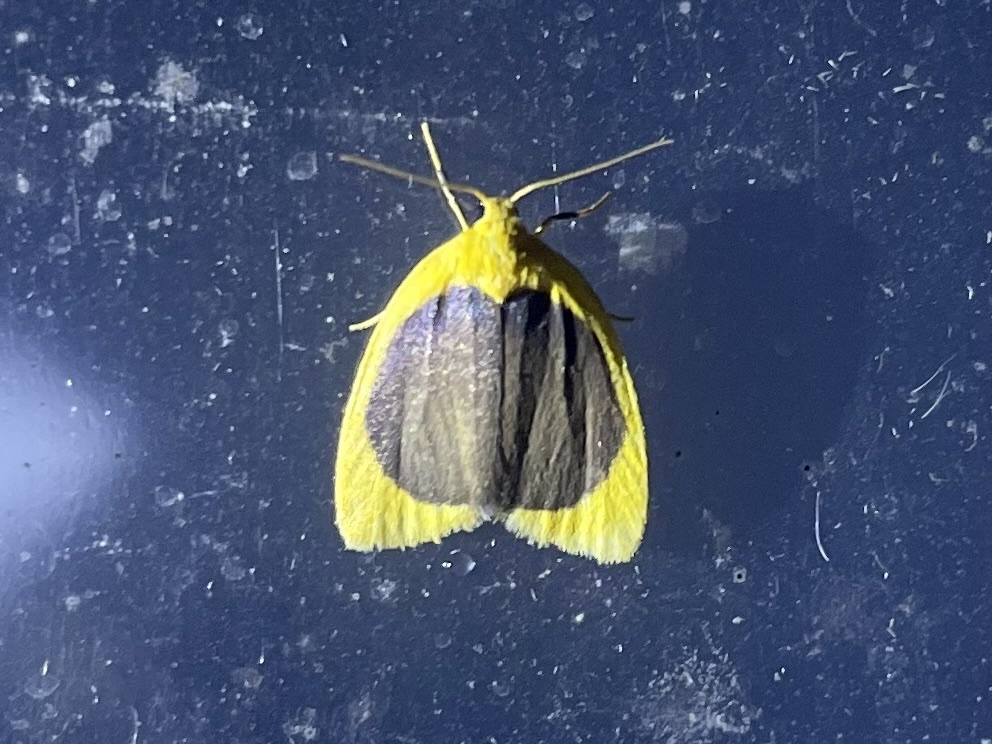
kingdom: Animalia
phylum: Arthropoda
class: Insecta
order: Lepidoptera
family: Erebidae
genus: Pronola
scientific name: Pronola magniplaga
